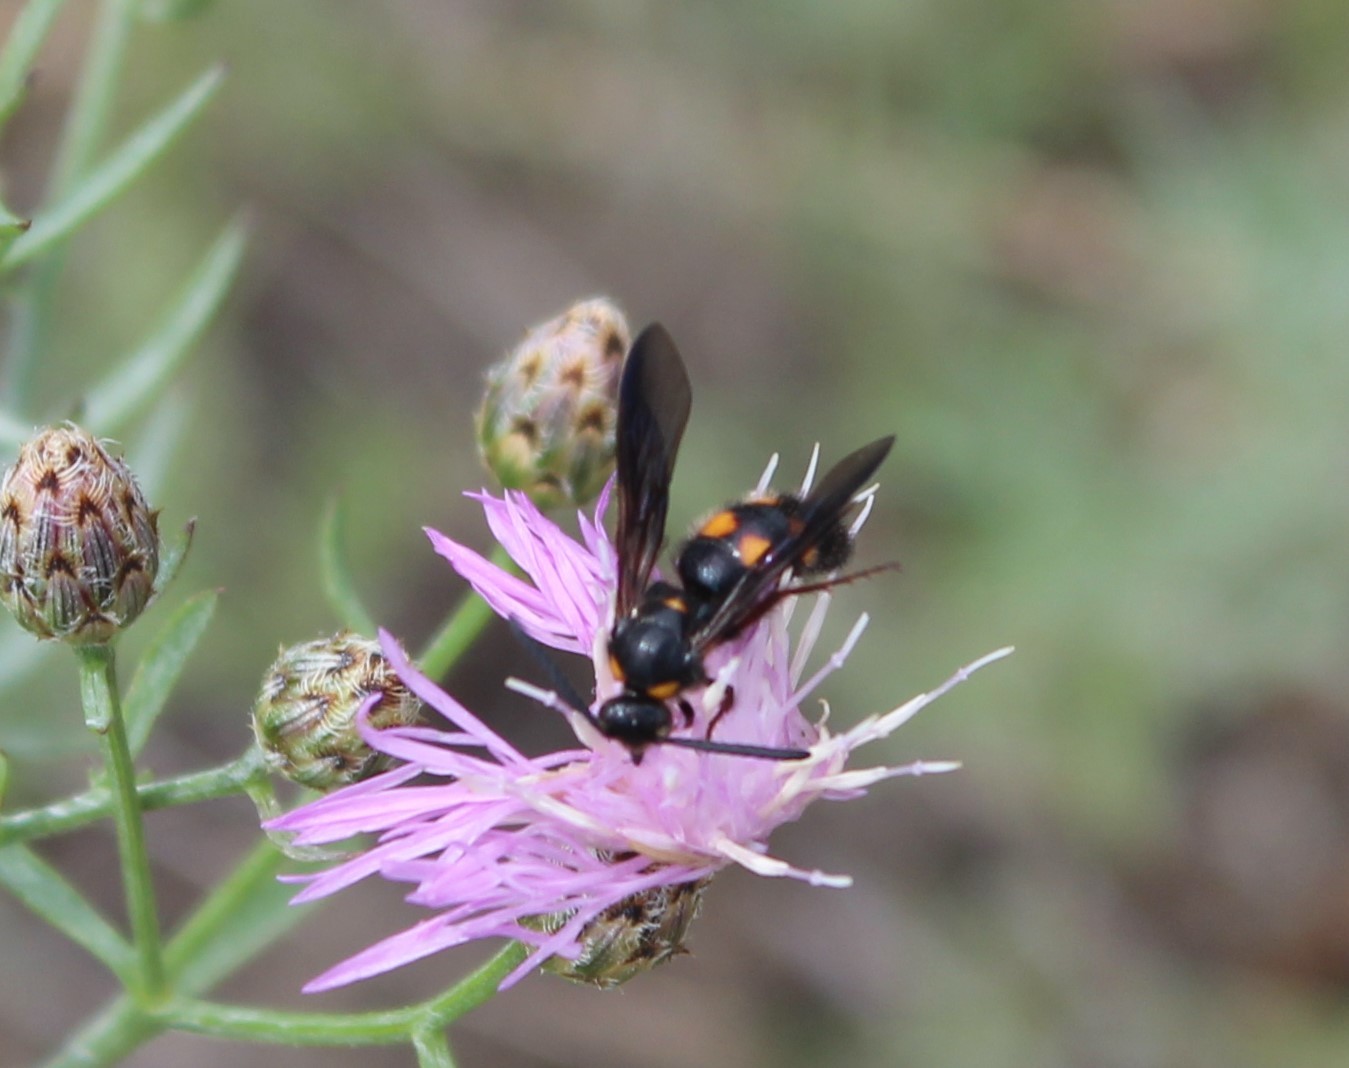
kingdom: Animalia
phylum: Arthropoda
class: Insecta
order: Hymenoptera
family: Scoliidae
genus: Scolia
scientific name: Scolia nobilitata
